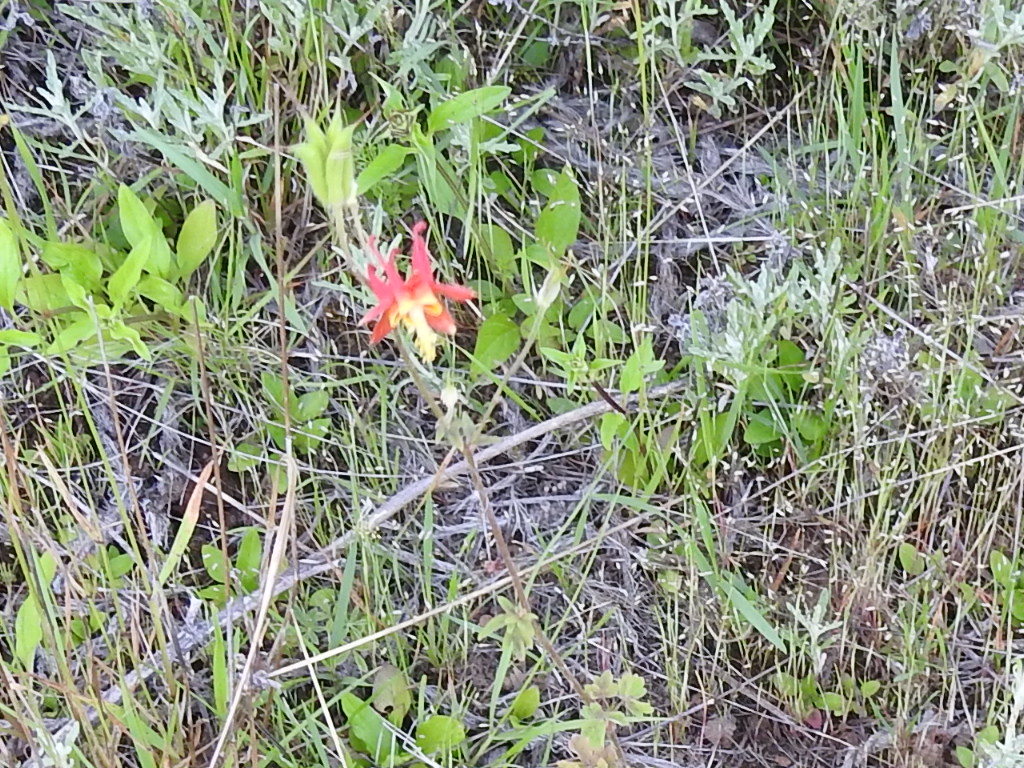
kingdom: Plantae
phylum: Tracheophyta
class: Magnoliopsida
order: Ranunculales
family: Ranunculaceae
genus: Aquilegia
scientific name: Aquilegia formosa
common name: Sitka columbine
